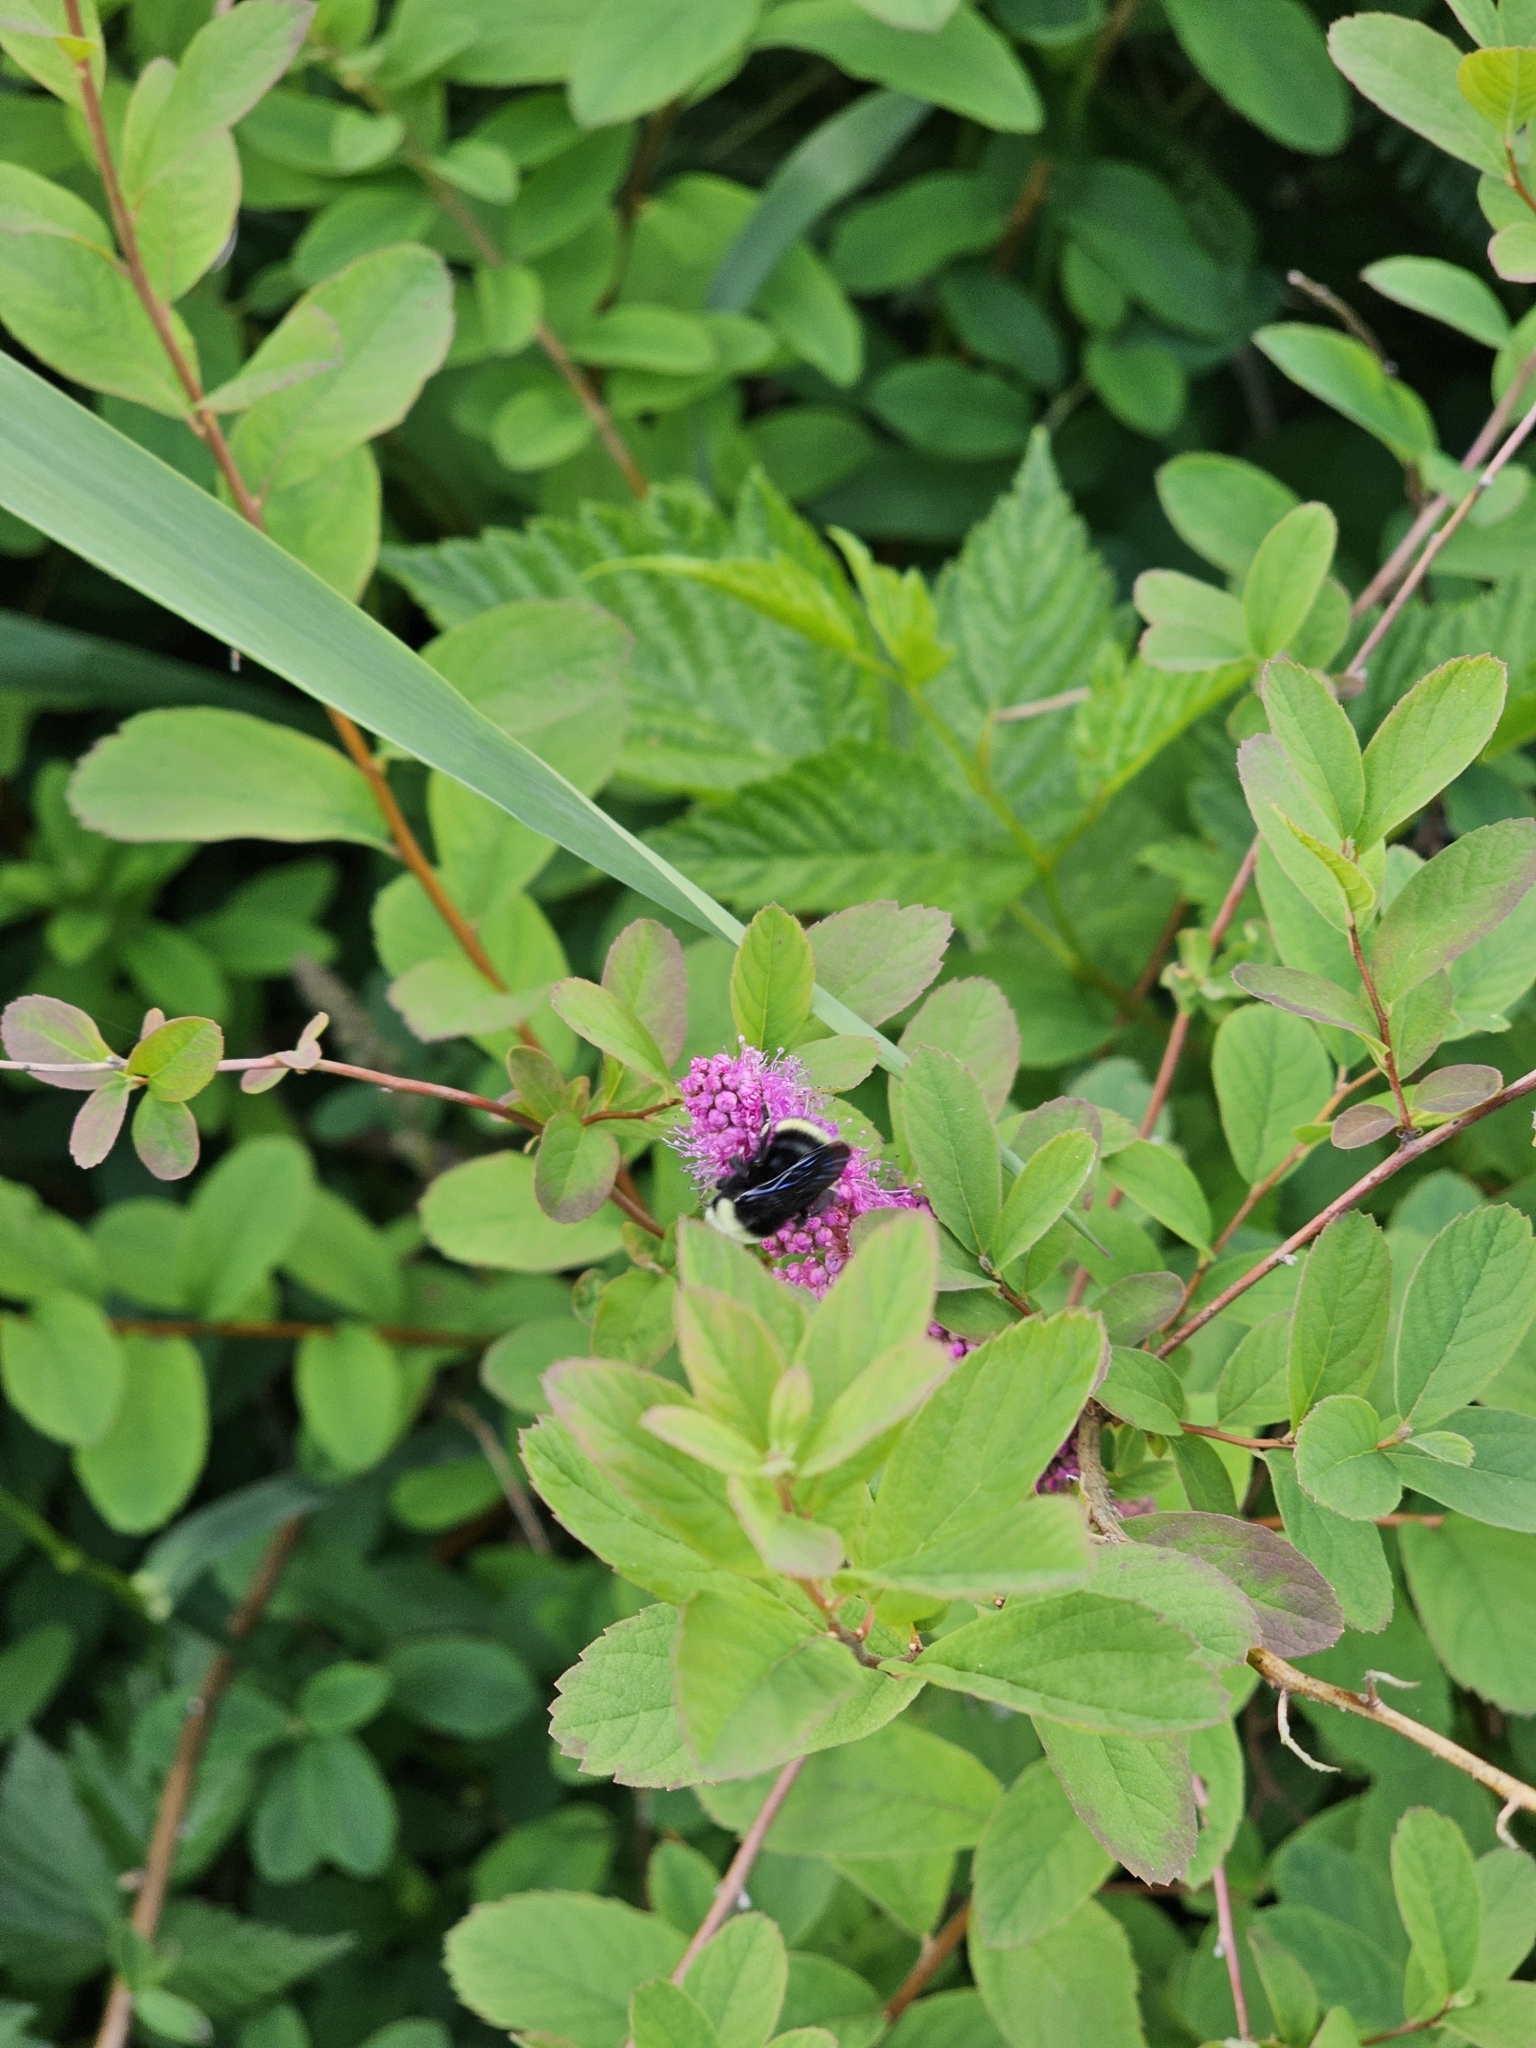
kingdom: Animalia
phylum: Arthropoda
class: Insecta
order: Hymenoptera
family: Apidae
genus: Bombus
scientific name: Bombus vosnesenskii
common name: Vosnesensky bumble bee
